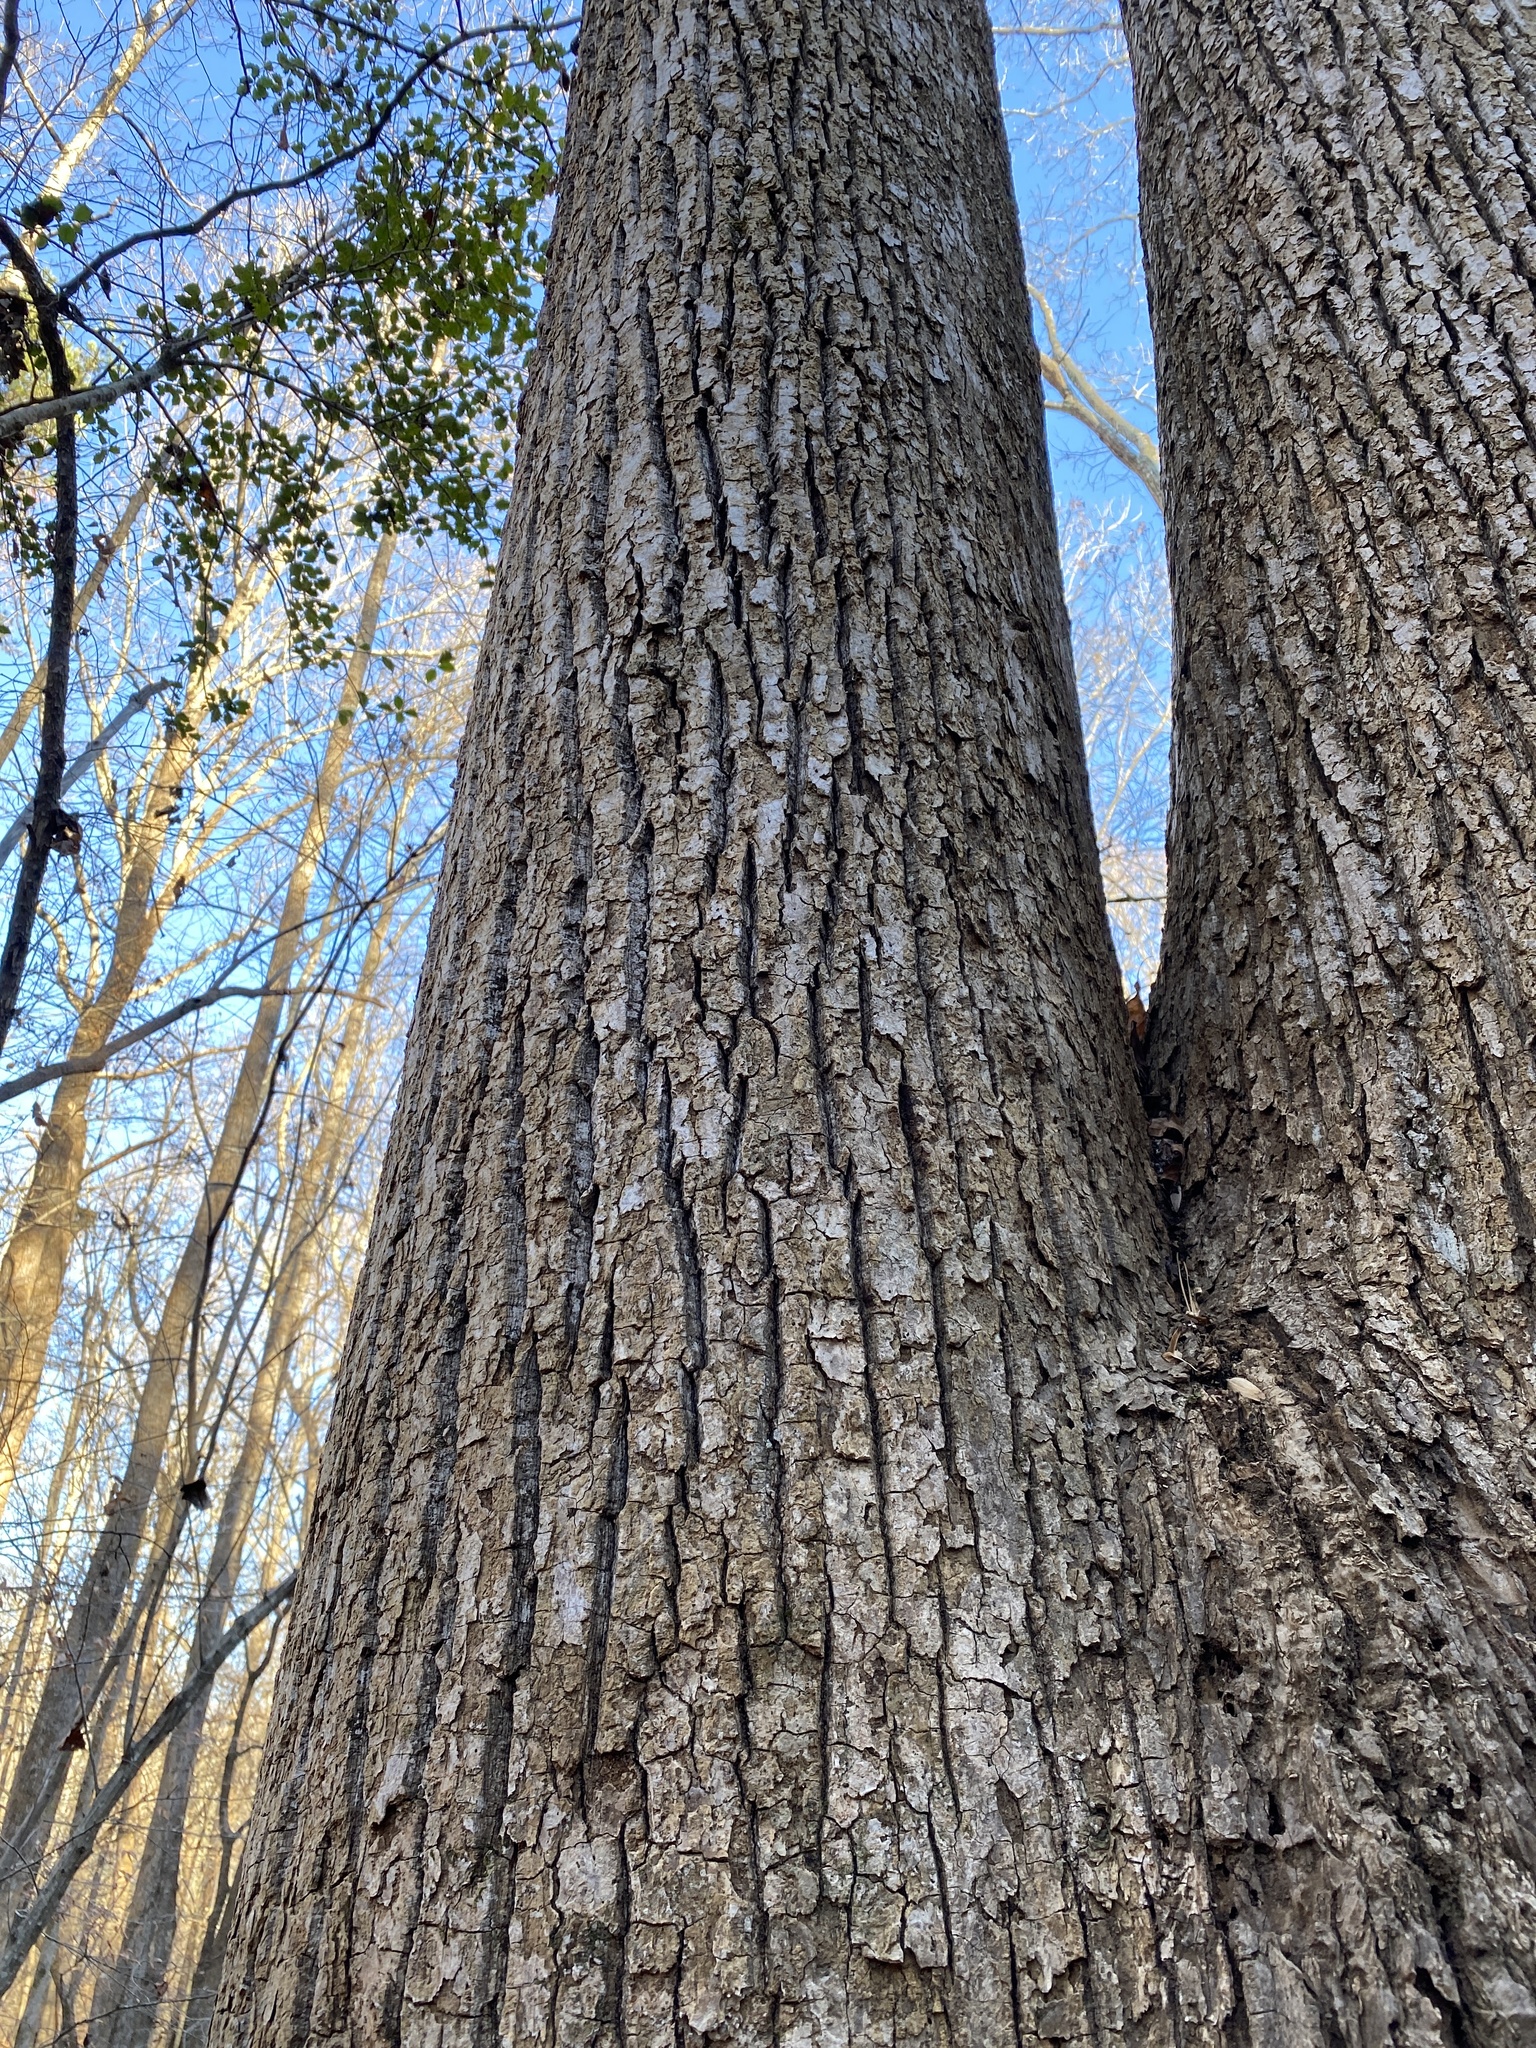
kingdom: Plantae
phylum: Tracheophyta
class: Magnoliopsida
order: Magnoliales
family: Magnoliaceae
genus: Liriodendron
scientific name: Liriodendron tulipifera
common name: Tulip tree
